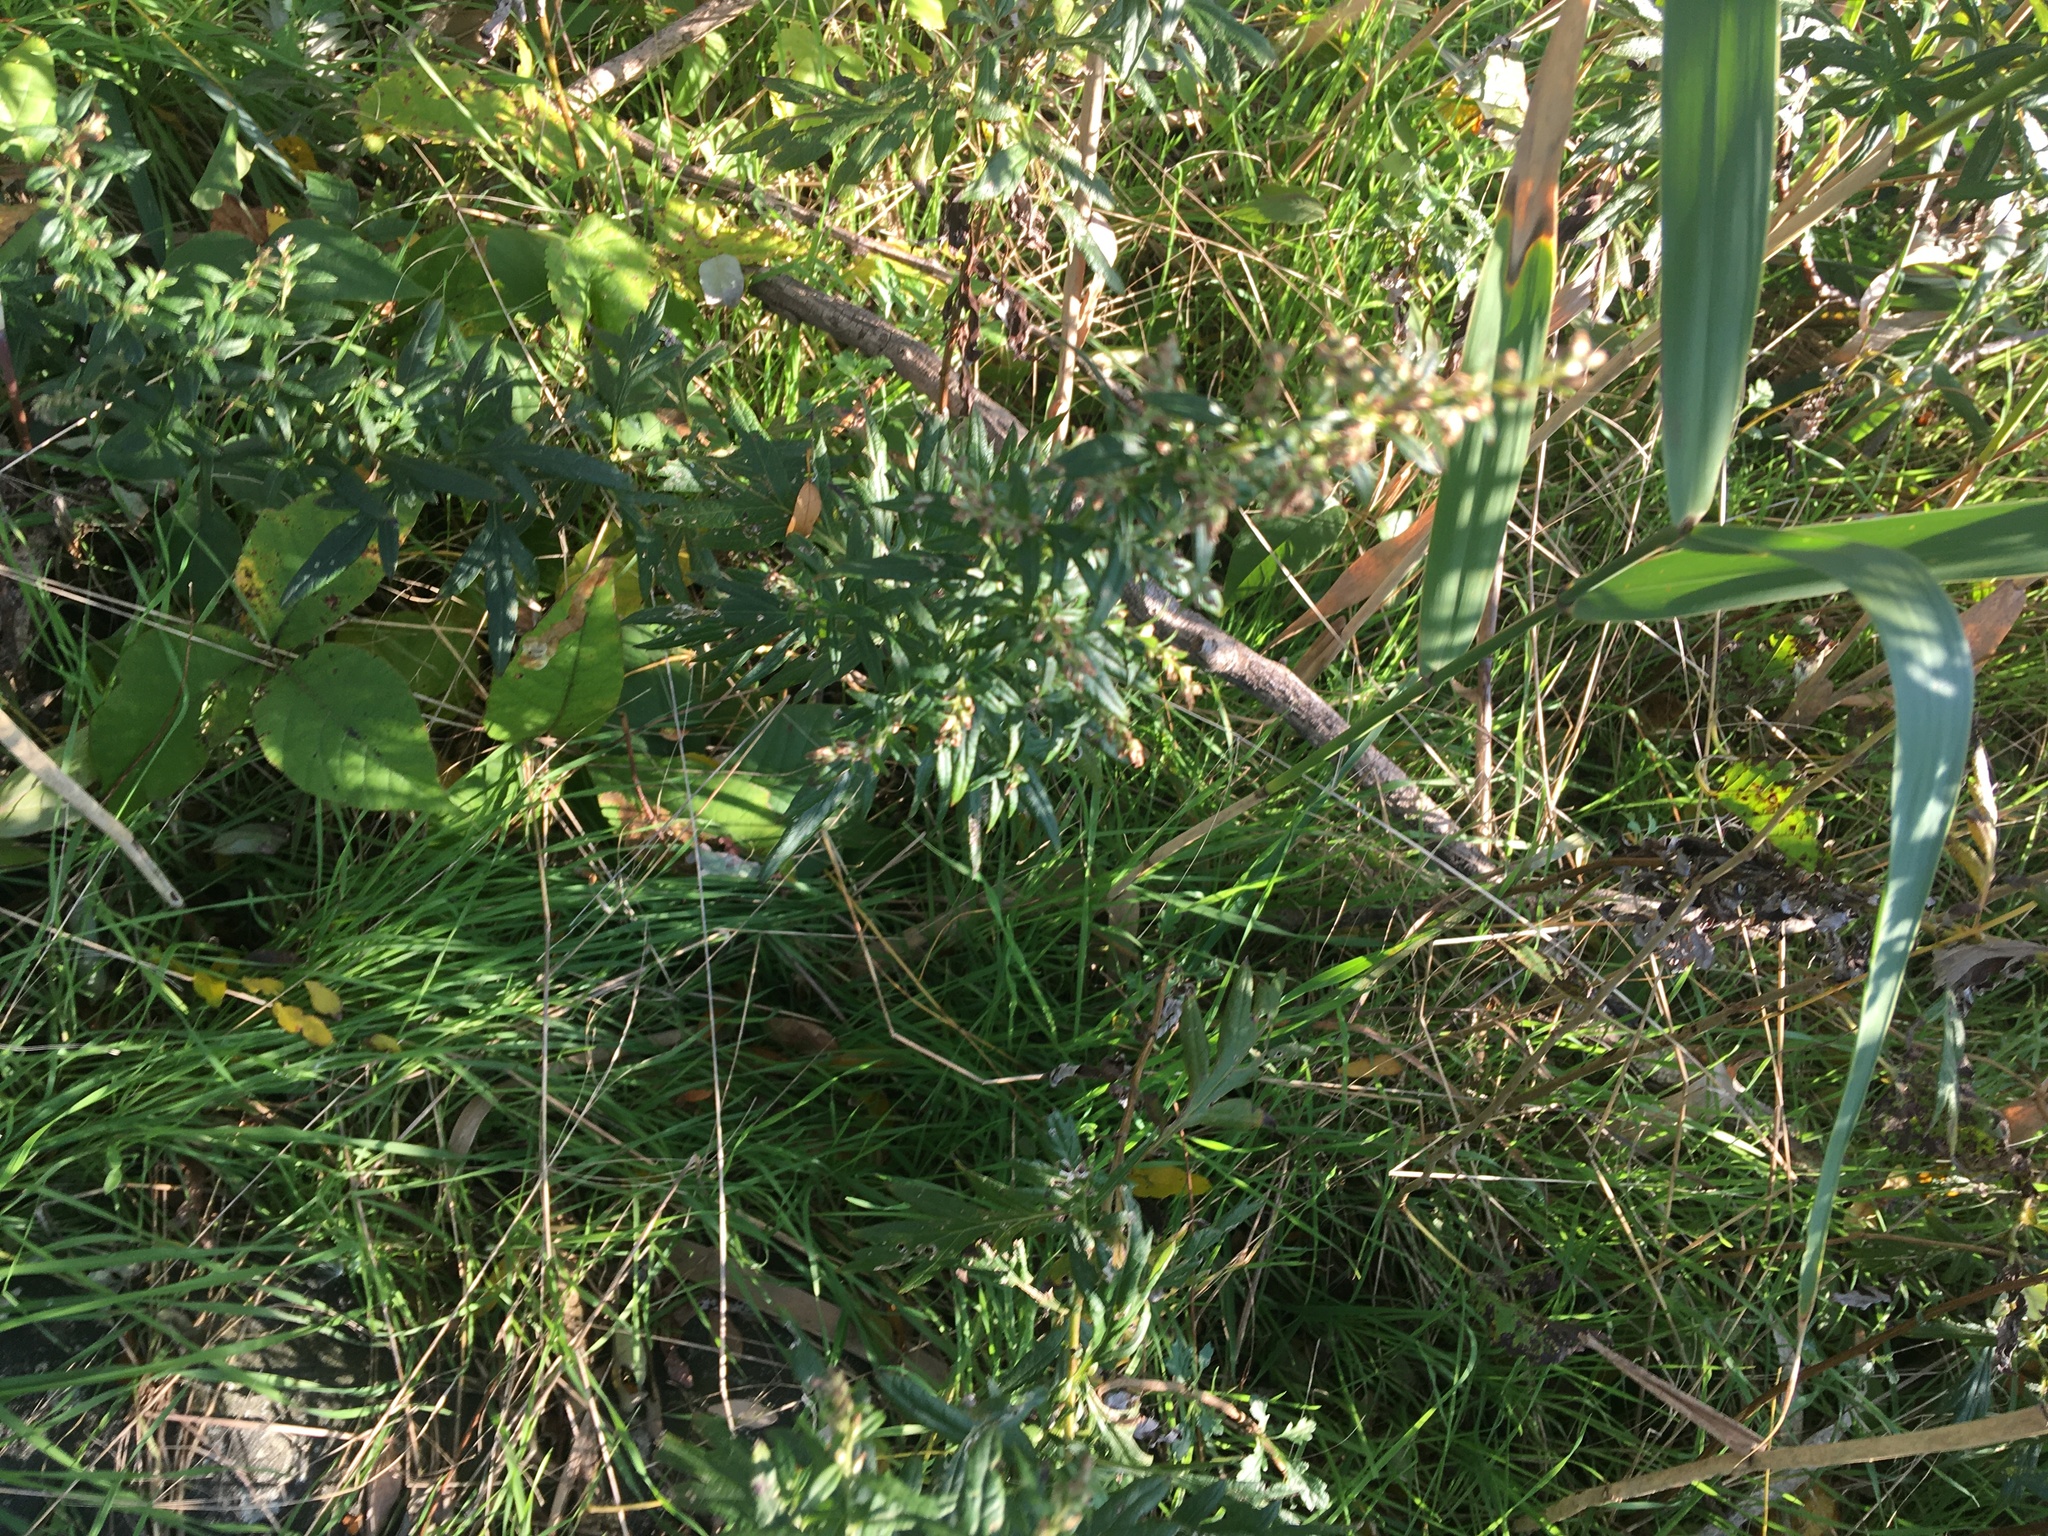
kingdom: Plantae
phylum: Tracheophyta
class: Magnoliopsida
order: Asterales
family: Asteraceae
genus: Artemisia
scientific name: Artemisia vulgaris
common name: Mugwort
